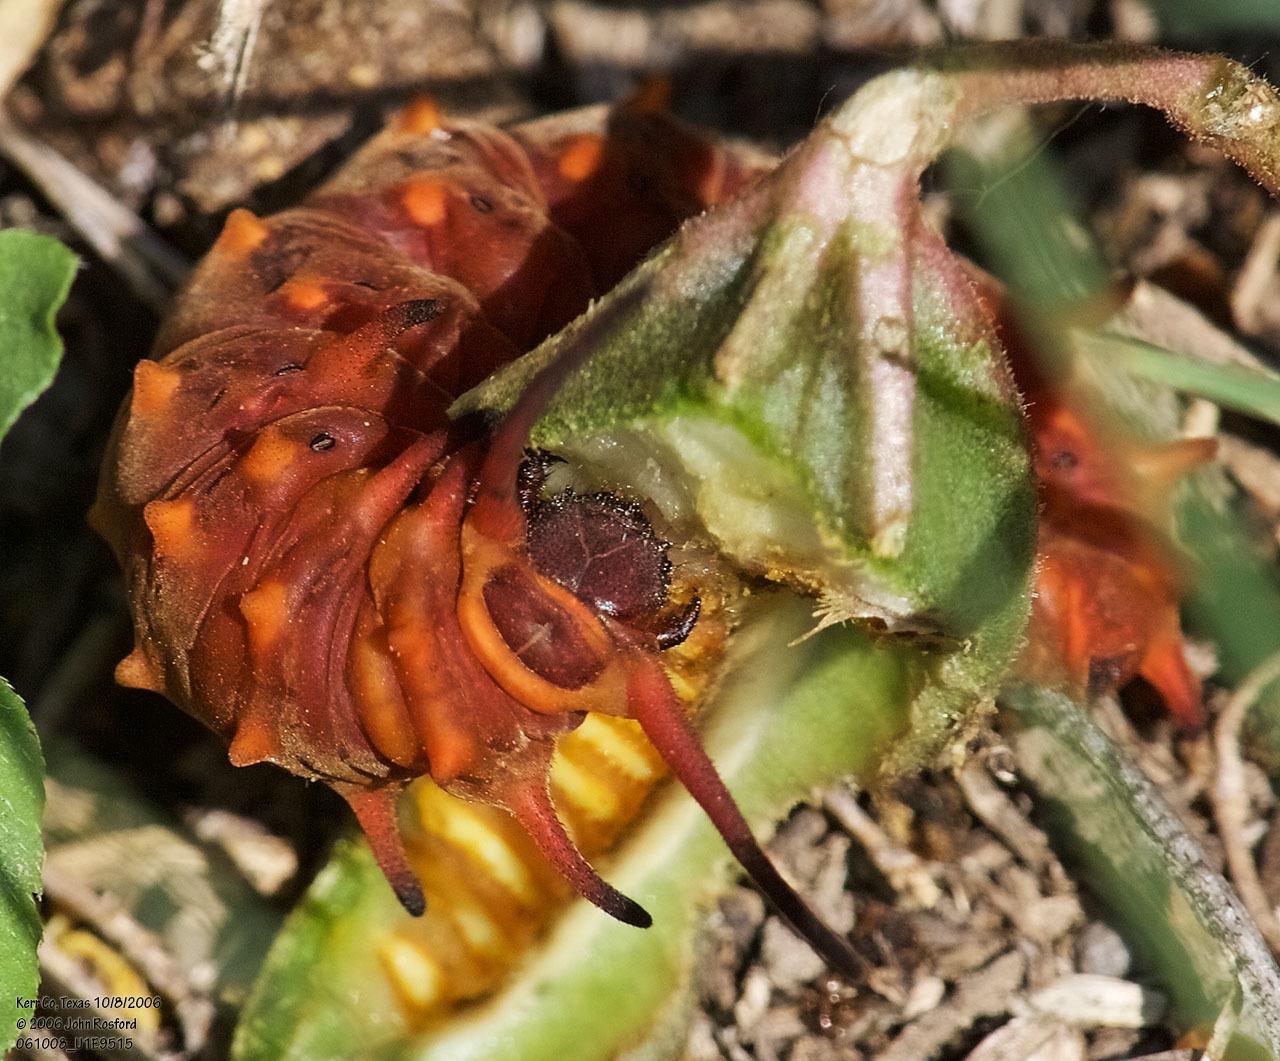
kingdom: Animalia
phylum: Arthropoda
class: Insecta
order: Lepidoptera
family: Papilionidae
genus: Battus
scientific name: Battus philenor
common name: Pipevine swallowtail
